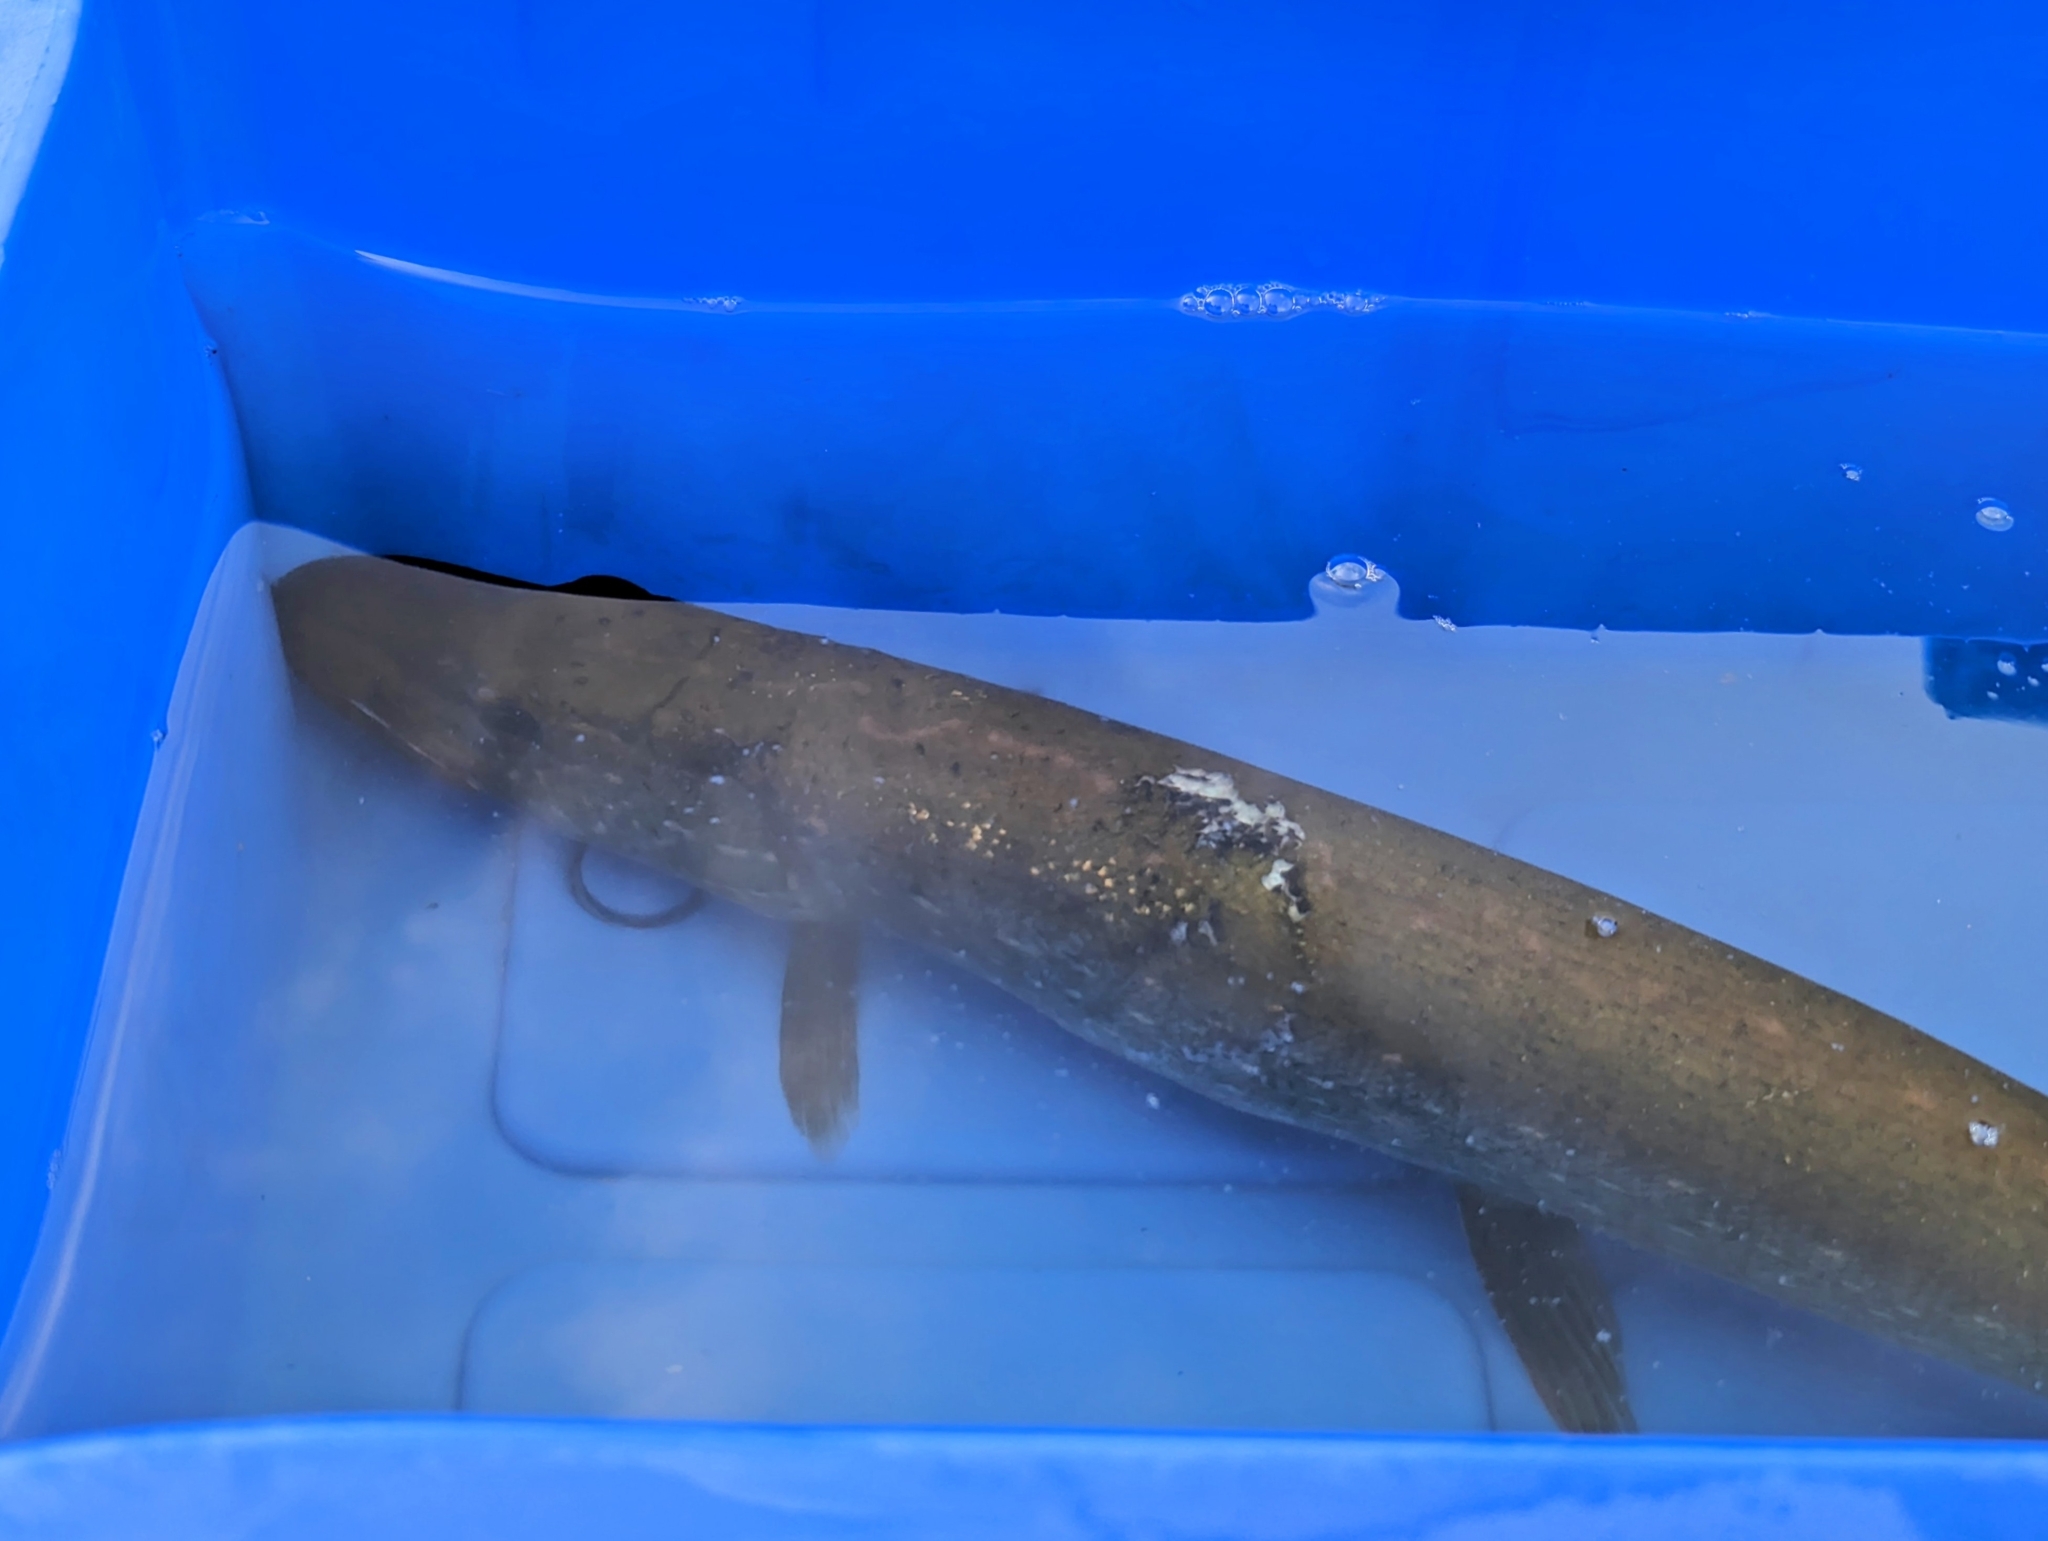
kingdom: Animalia
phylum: Chordata
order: Esociformes
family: Esocidae
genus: Esox
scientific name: Esox lucius
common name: Northern pike
